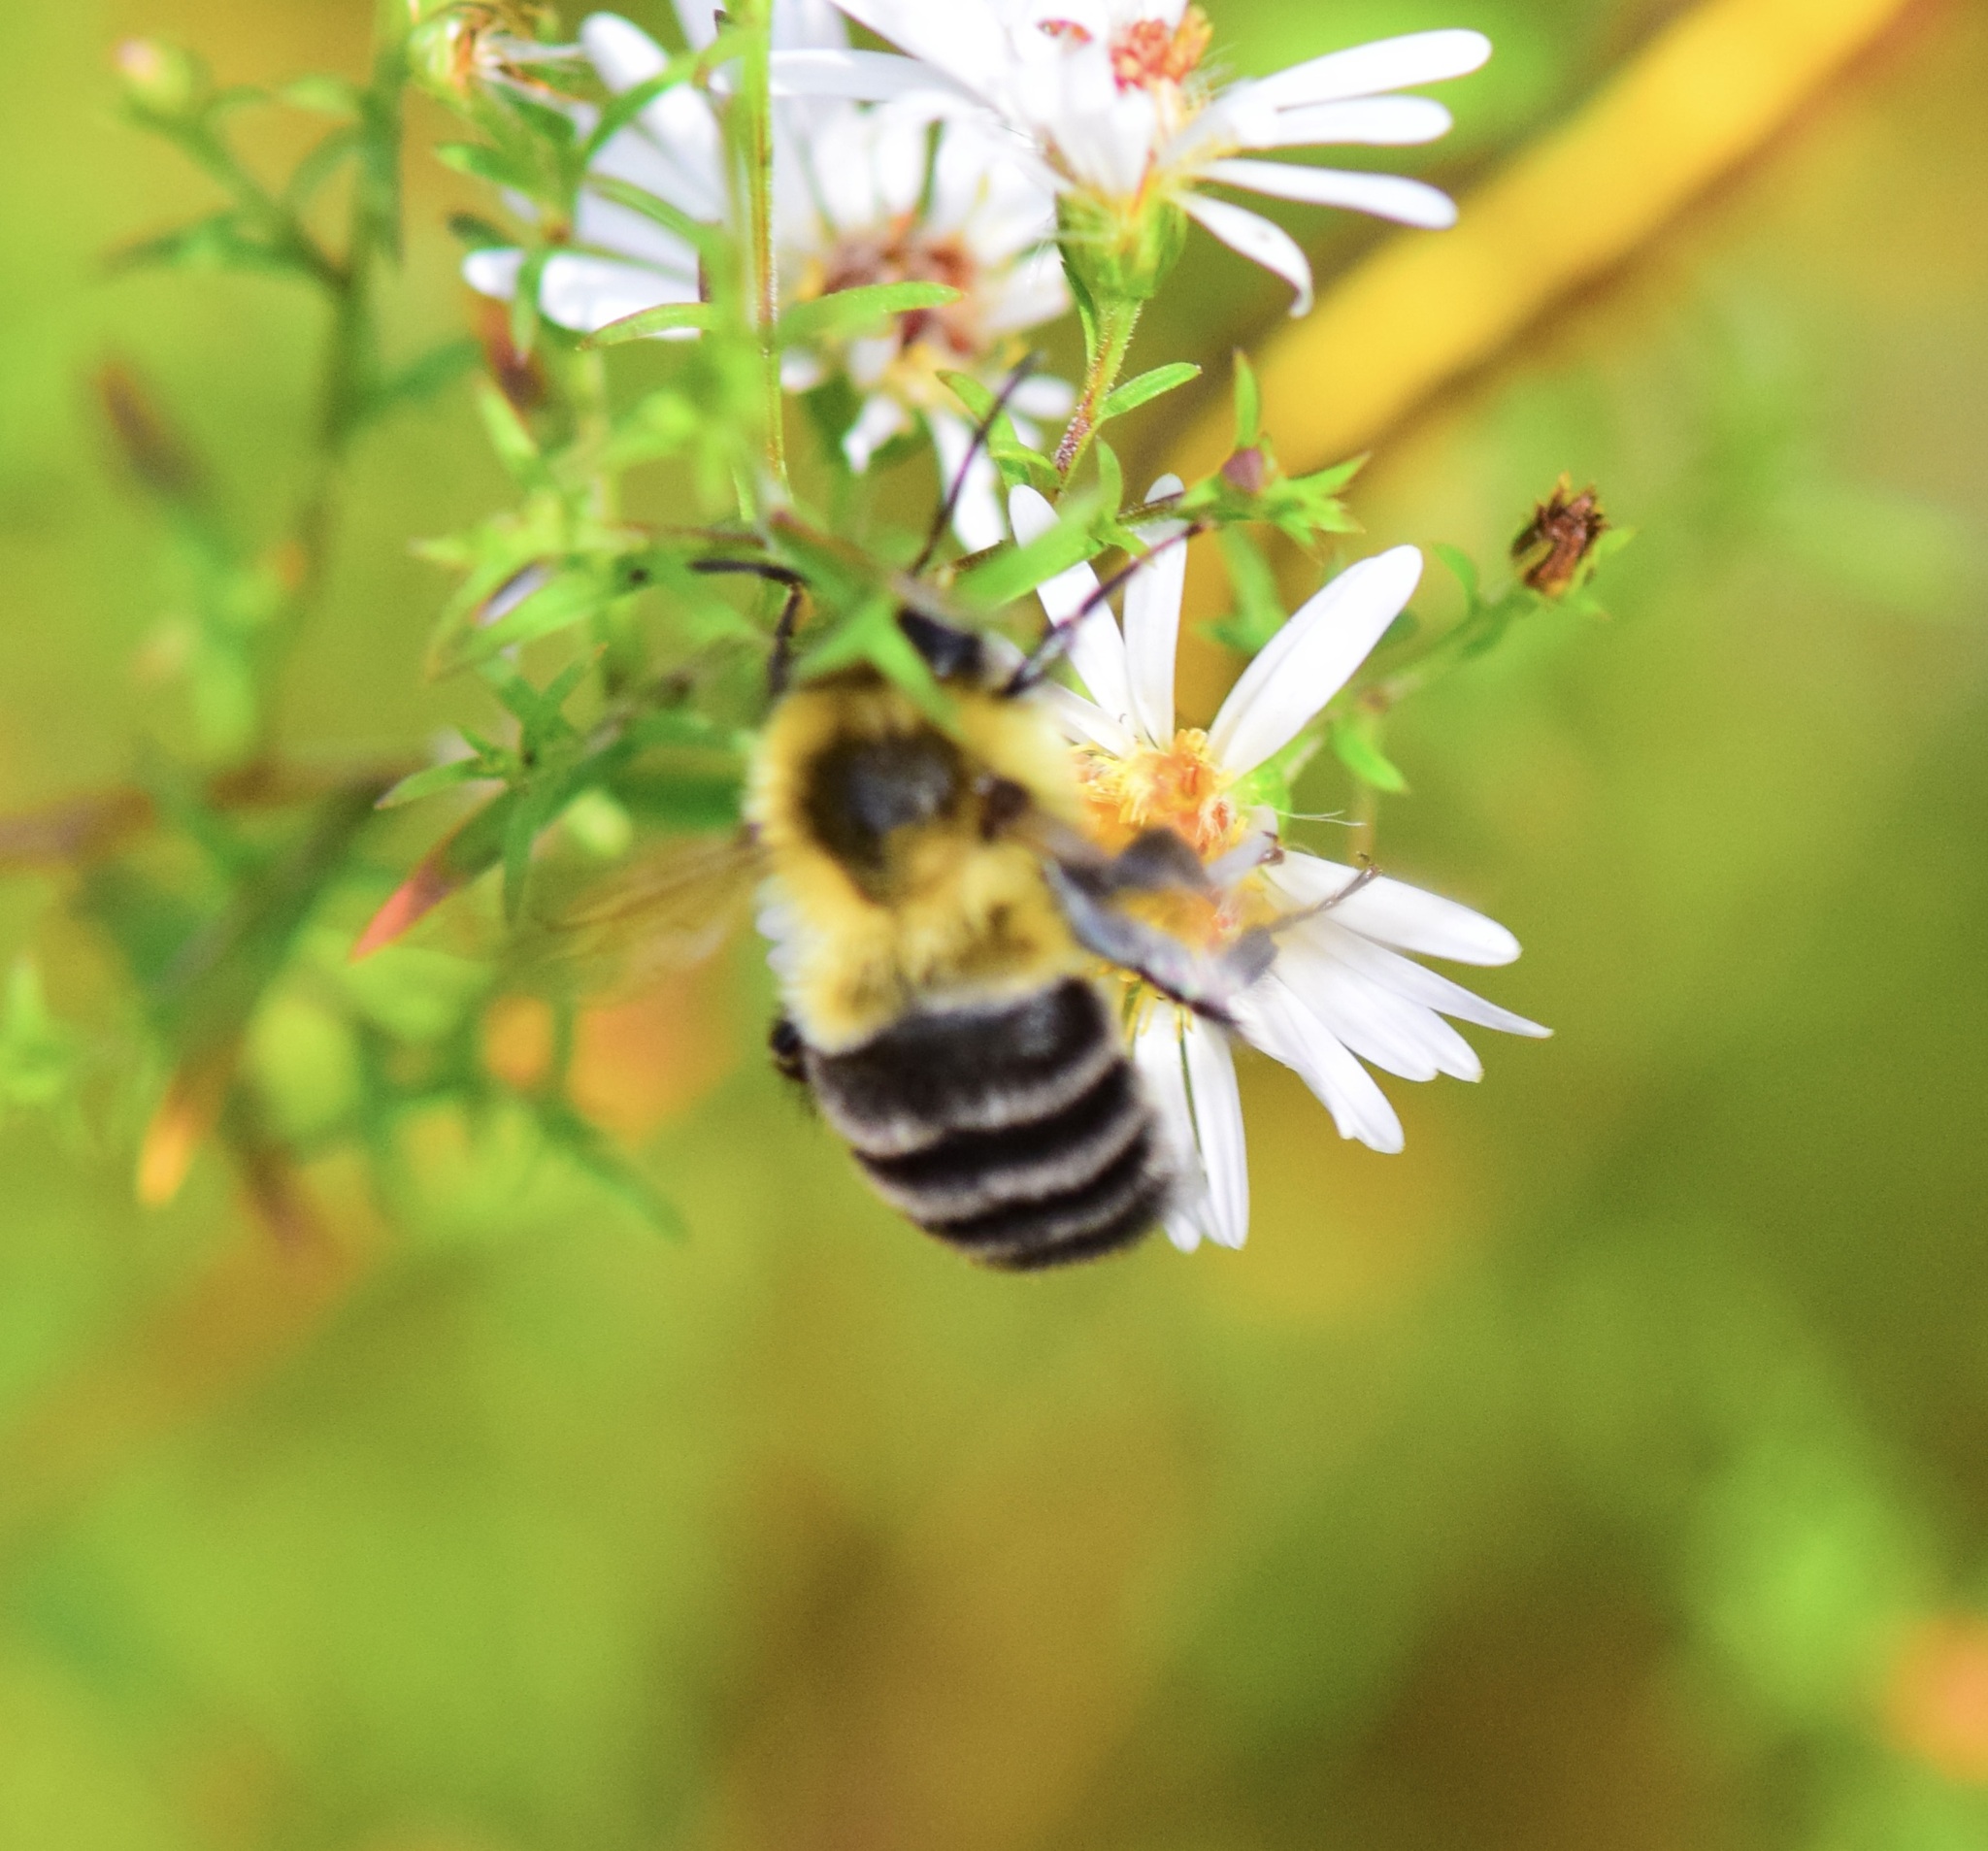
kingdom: Animalia
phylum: Arthropoda
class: Insecta
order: Hymenoptera
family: Apidae
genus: Bombus
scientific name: Bombus impatiens
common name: Common eastern bumble bee
